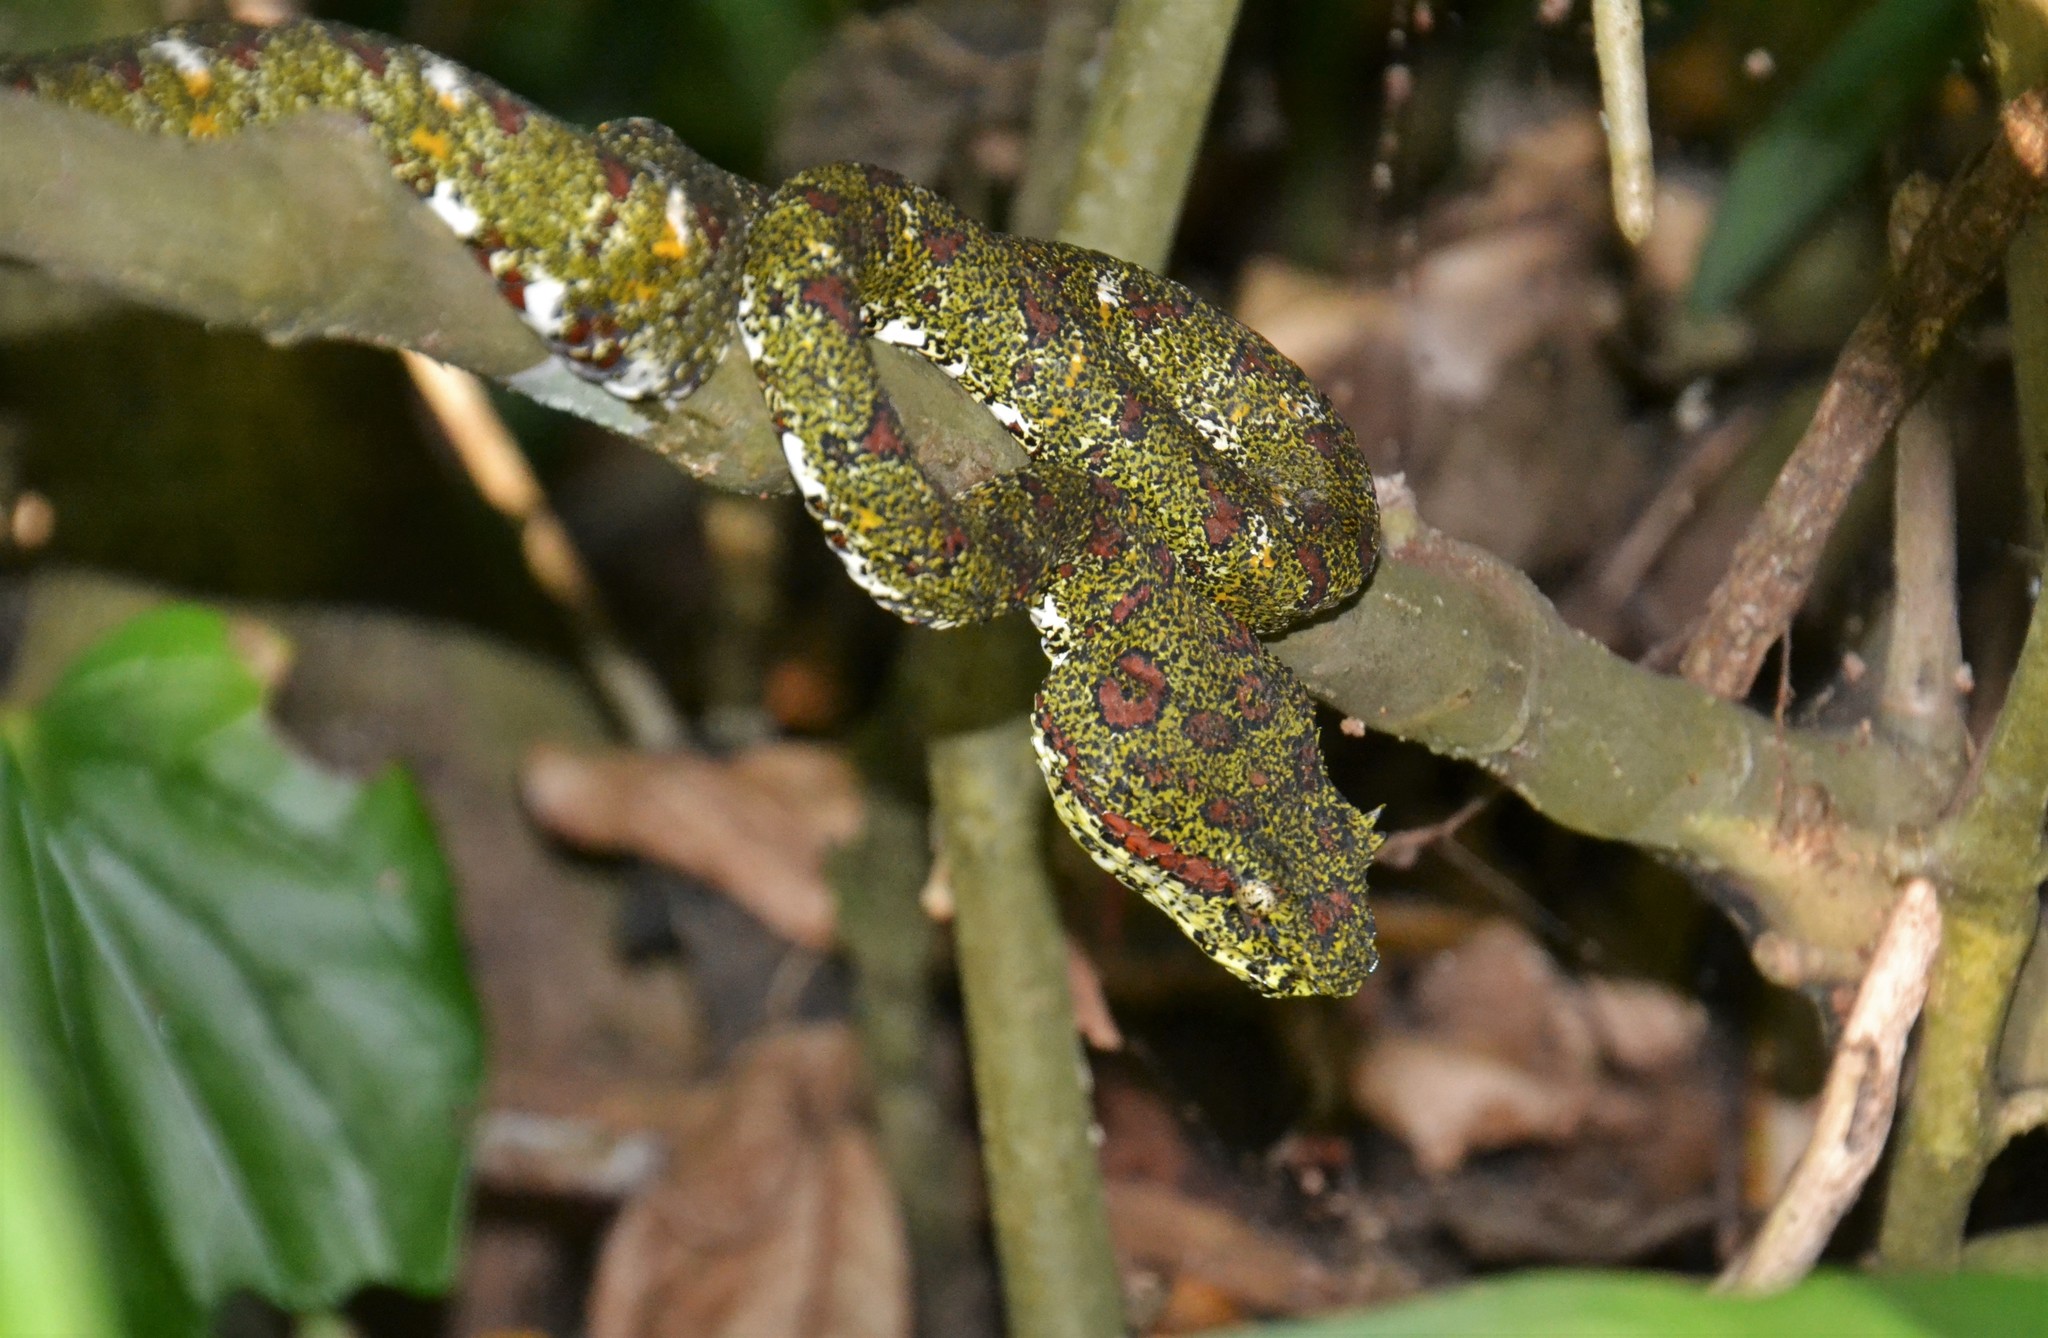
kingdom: Animalia
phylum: Chordata
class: Squamata
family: Viperidae
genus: Bothriechis
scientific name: Bothriechis schlegelii
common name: Eyelash viper
